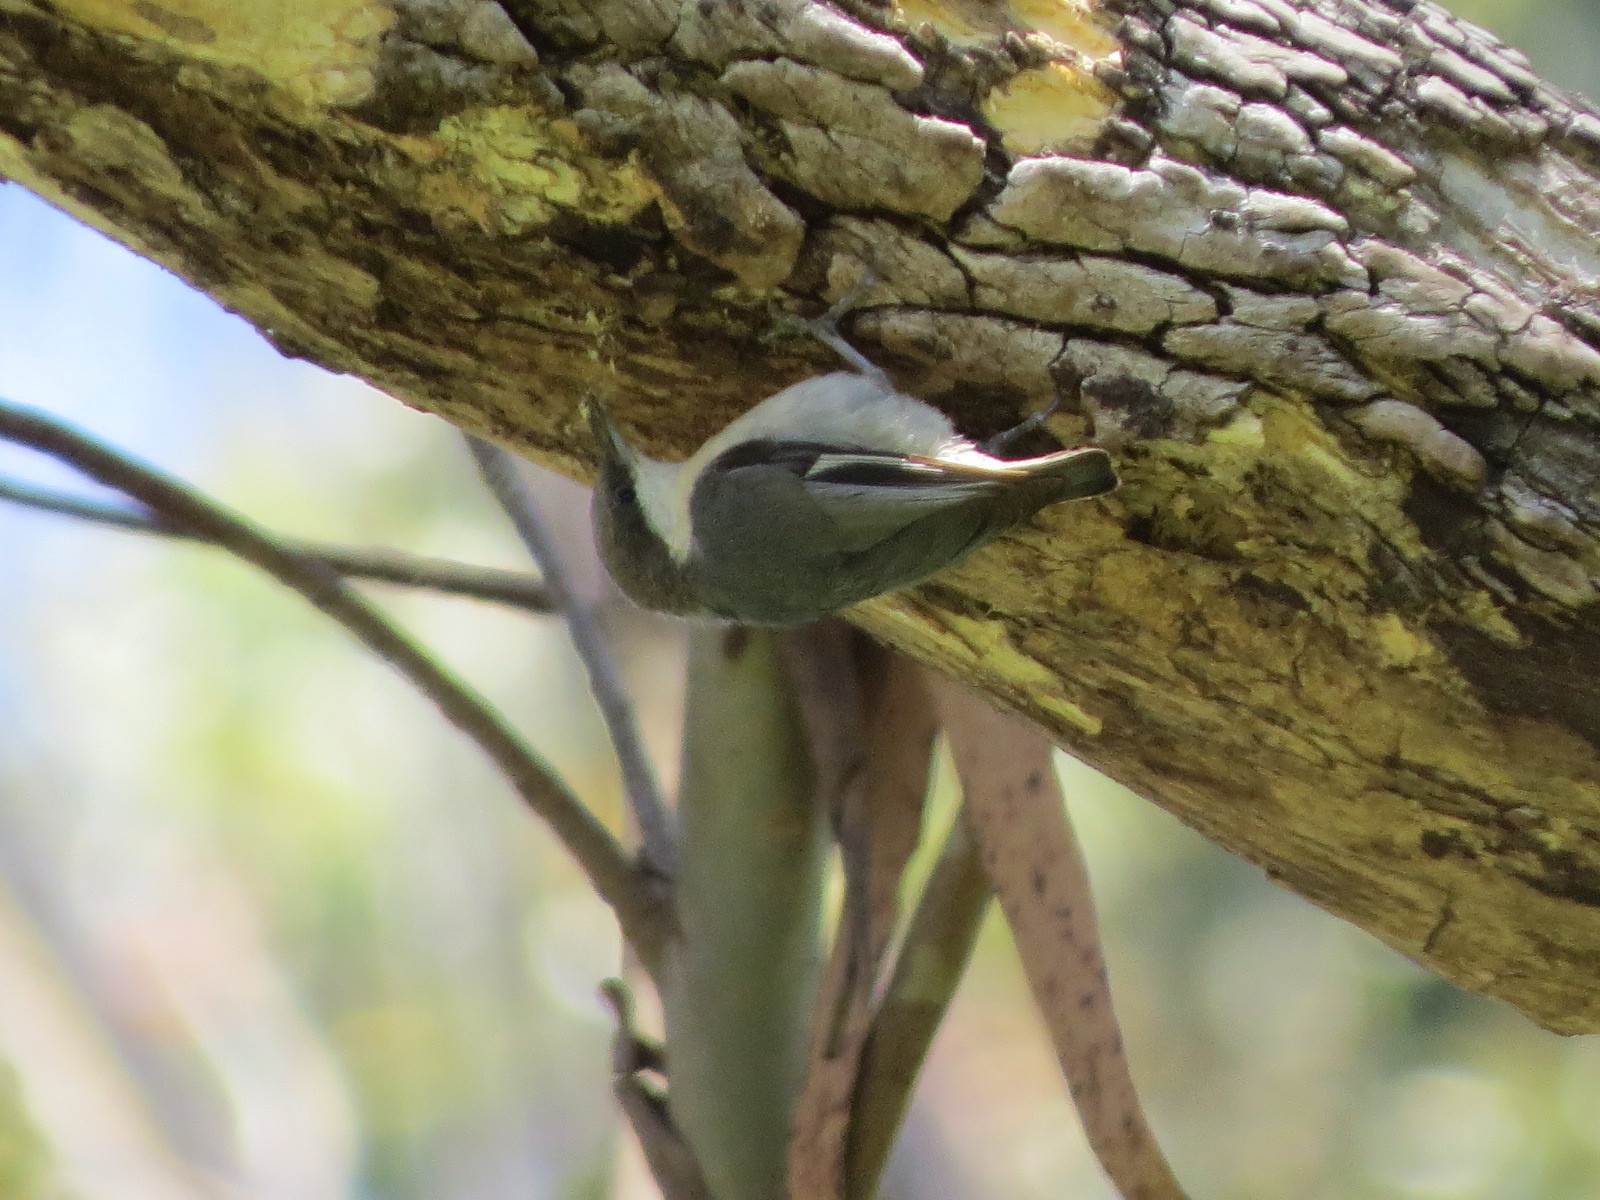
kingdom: Animalia
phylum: Chordata
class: Aves
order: Passeriformes
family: Sittidae
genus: Sitta
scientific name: Sitta pygmaea
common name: Pygmy nuthatch
